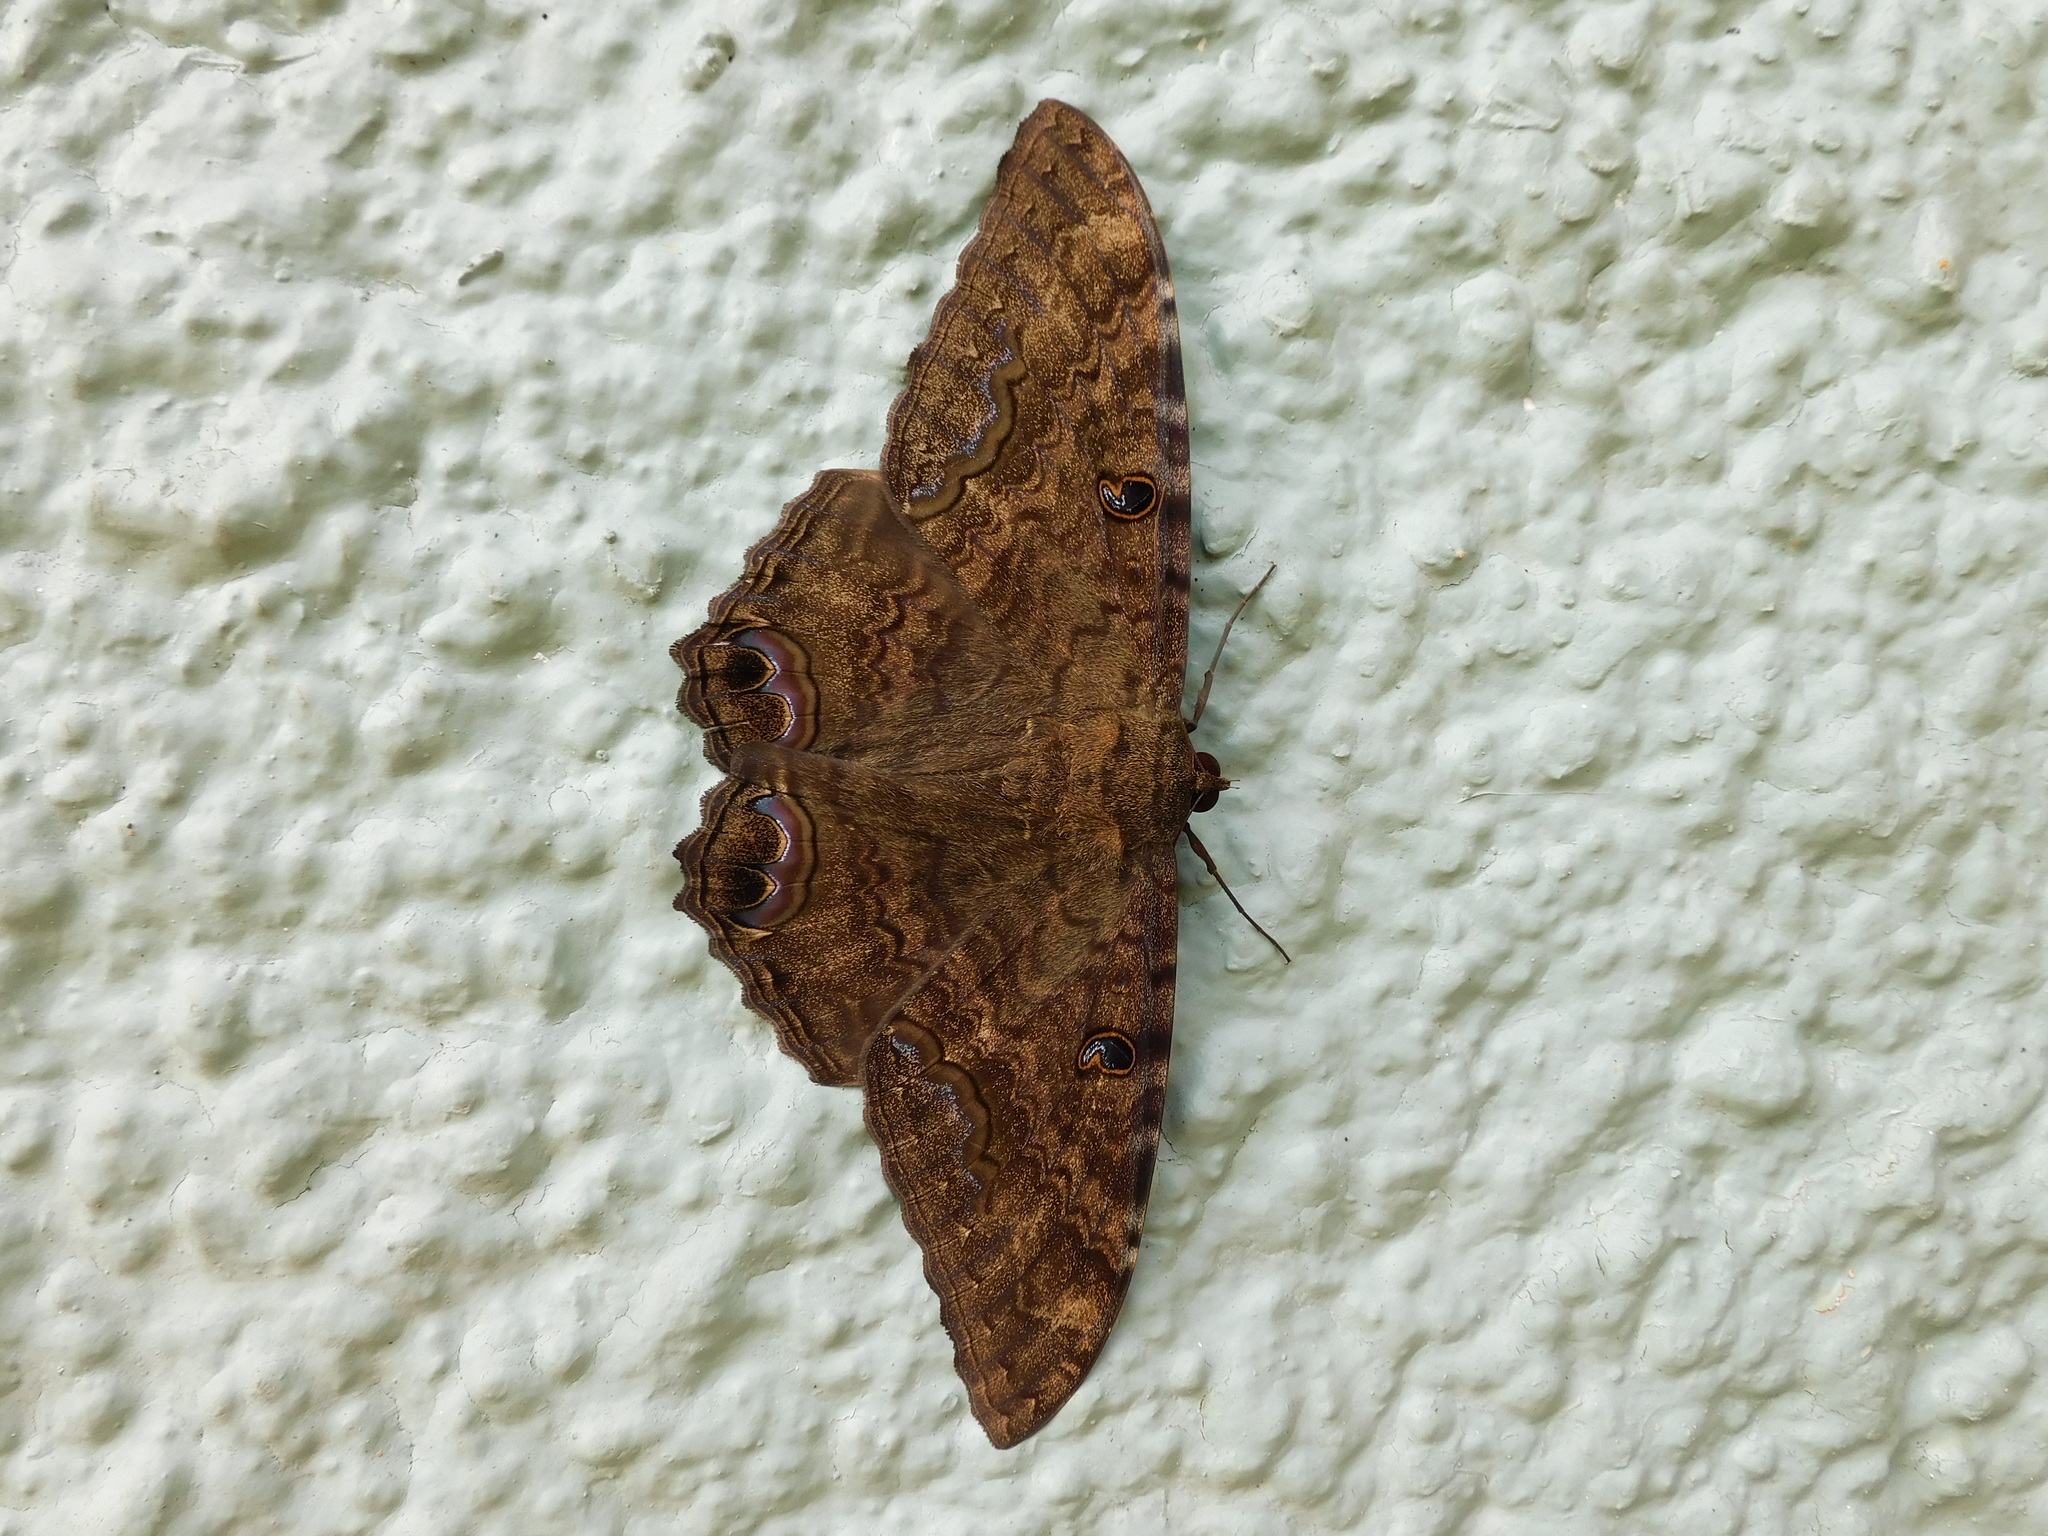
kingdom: Animalia
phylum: Arthropoda
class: Insecta
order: Lepidoptera
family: Erebidae
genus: Ascalapha
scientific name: Ascalapha odorata
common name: Black witch
